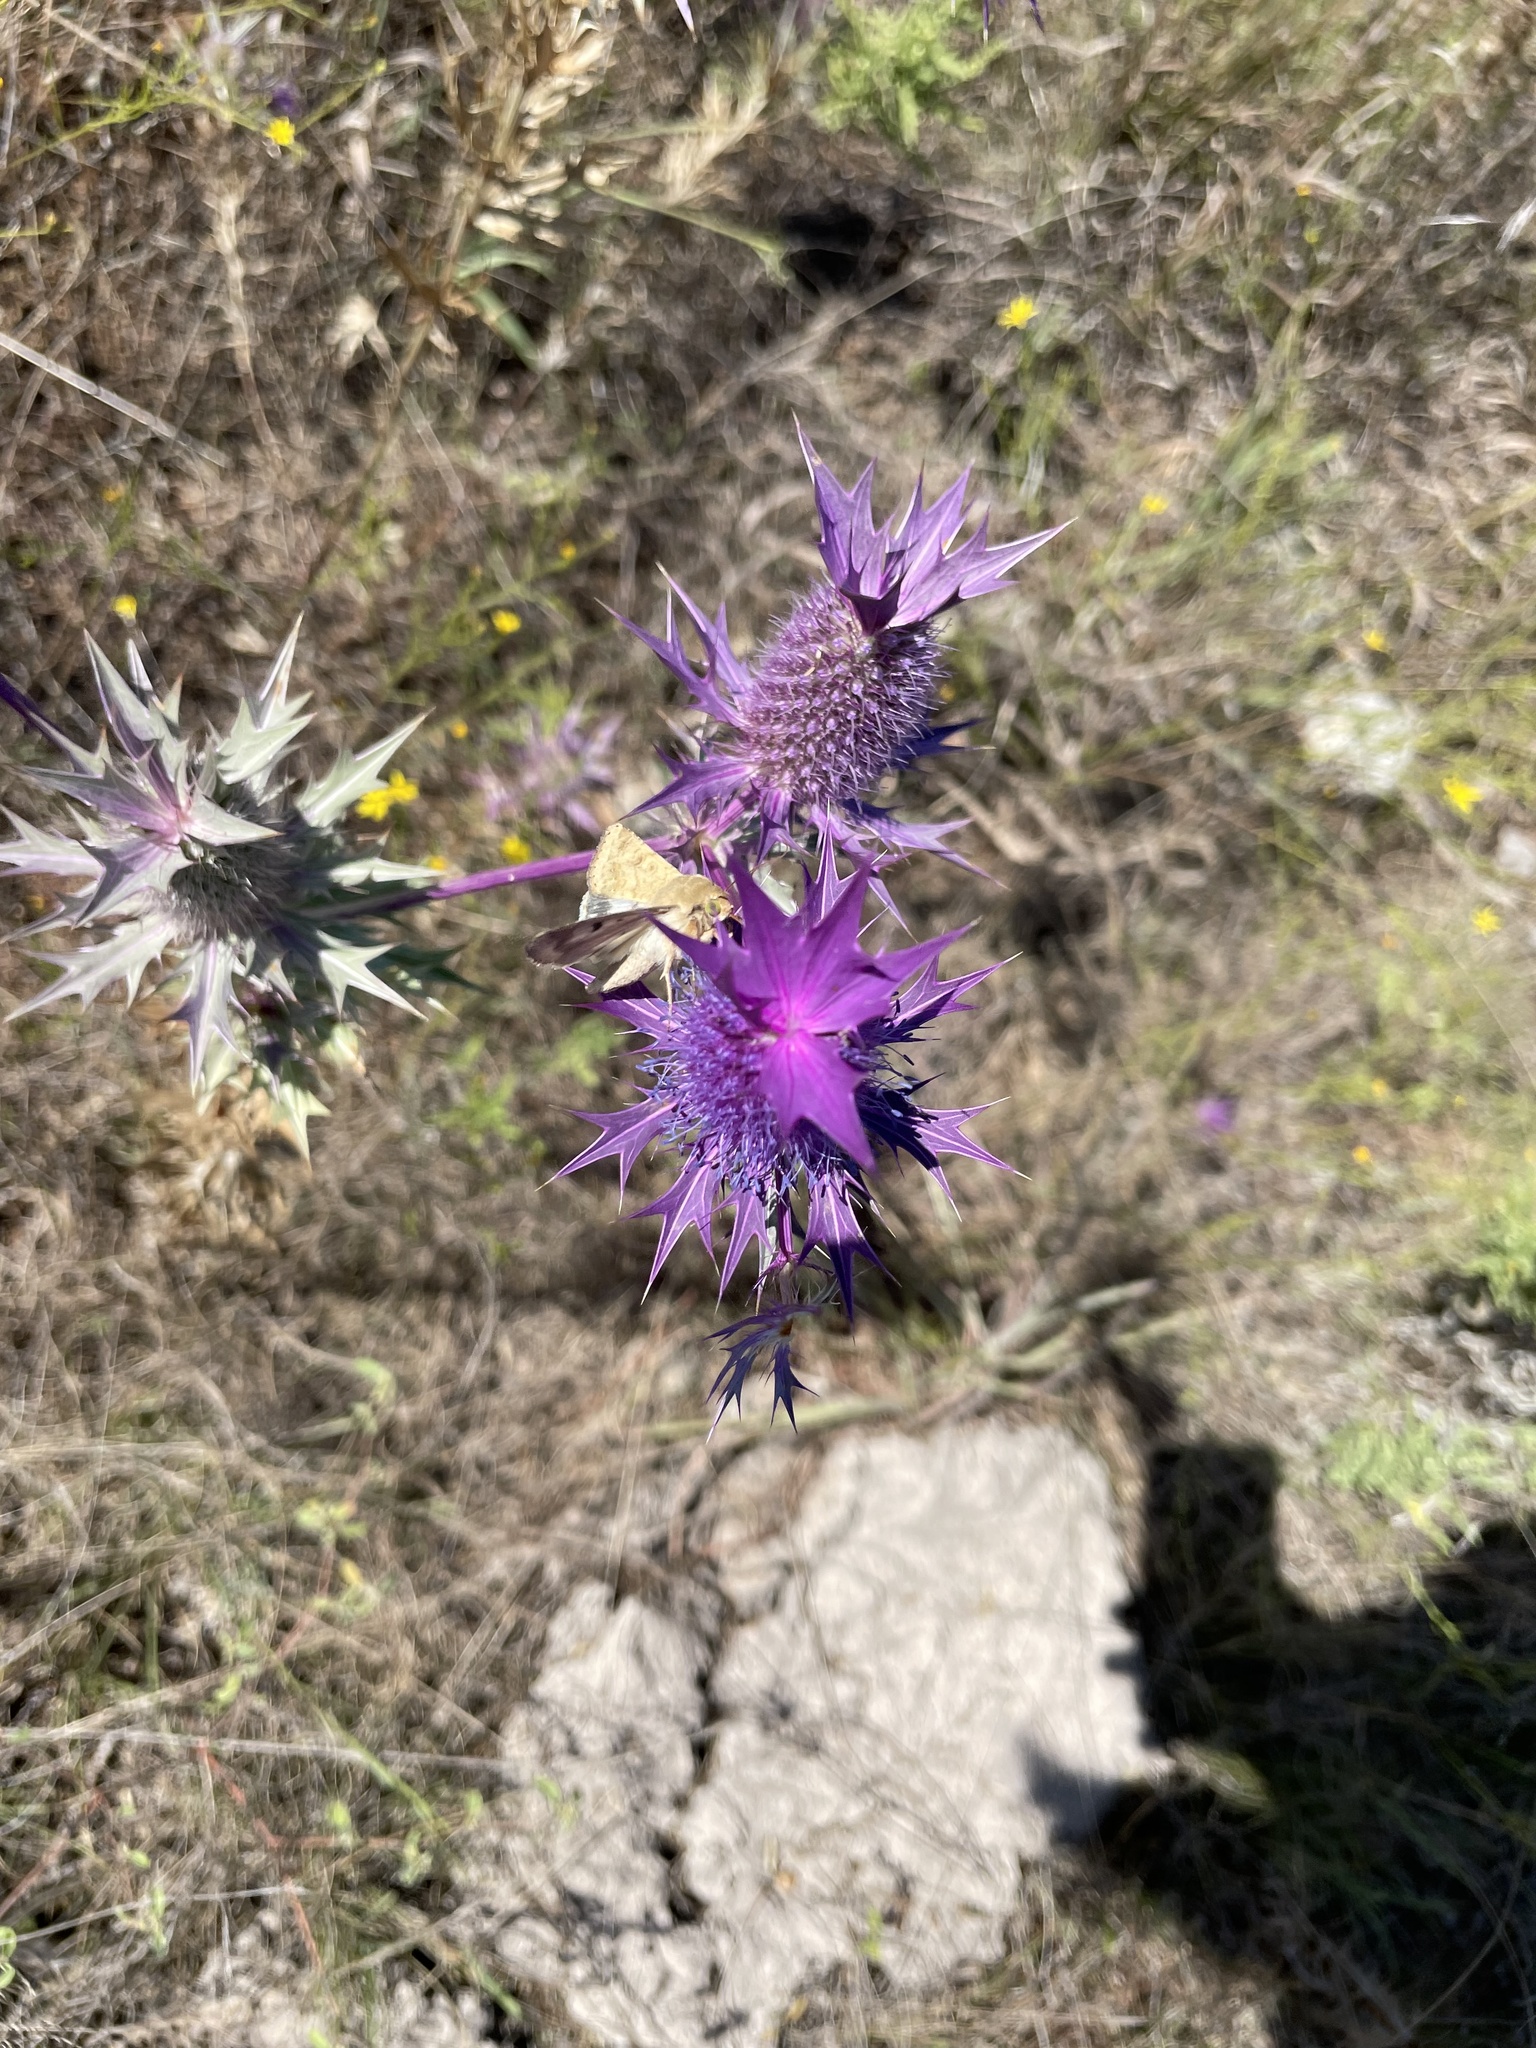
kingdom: Animalia
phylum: Arthropoda
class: Insecta
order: Lepidoptera
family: Noctuidae
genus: Helicoverpa
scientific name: Helicoverpa zea
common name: Bollworm
